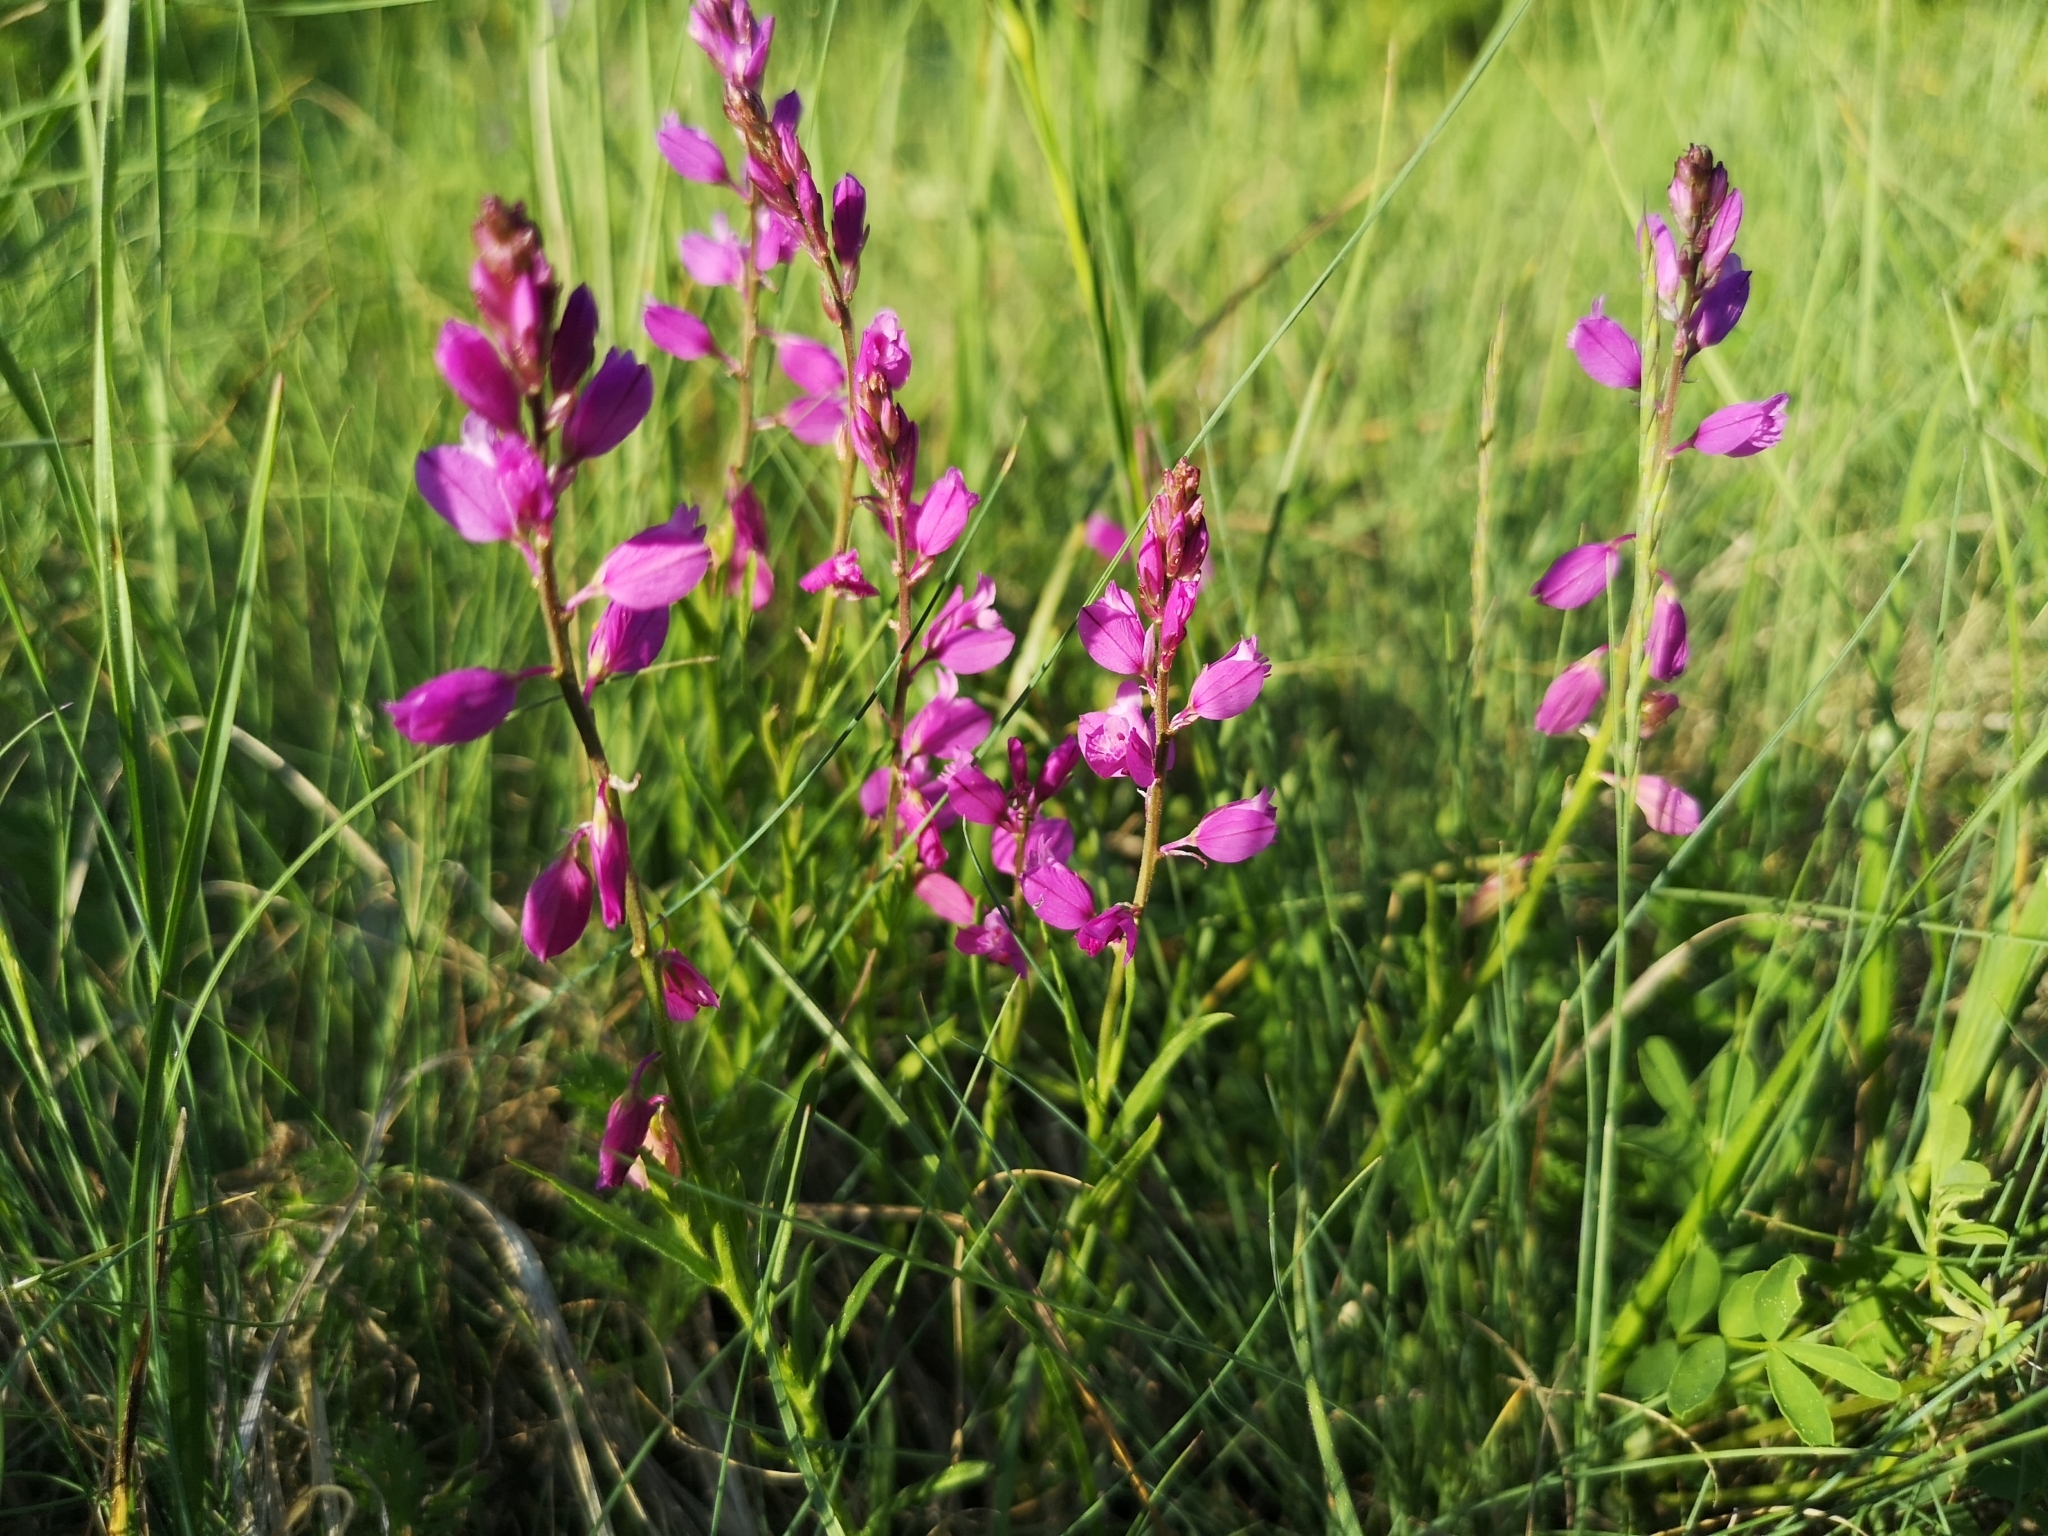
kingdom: Plantae
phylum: Tracheophyta
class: Magnoliopsida
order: Fabales
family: Polygalaceae
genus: Polygala
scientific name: Polygala nicaeensis
